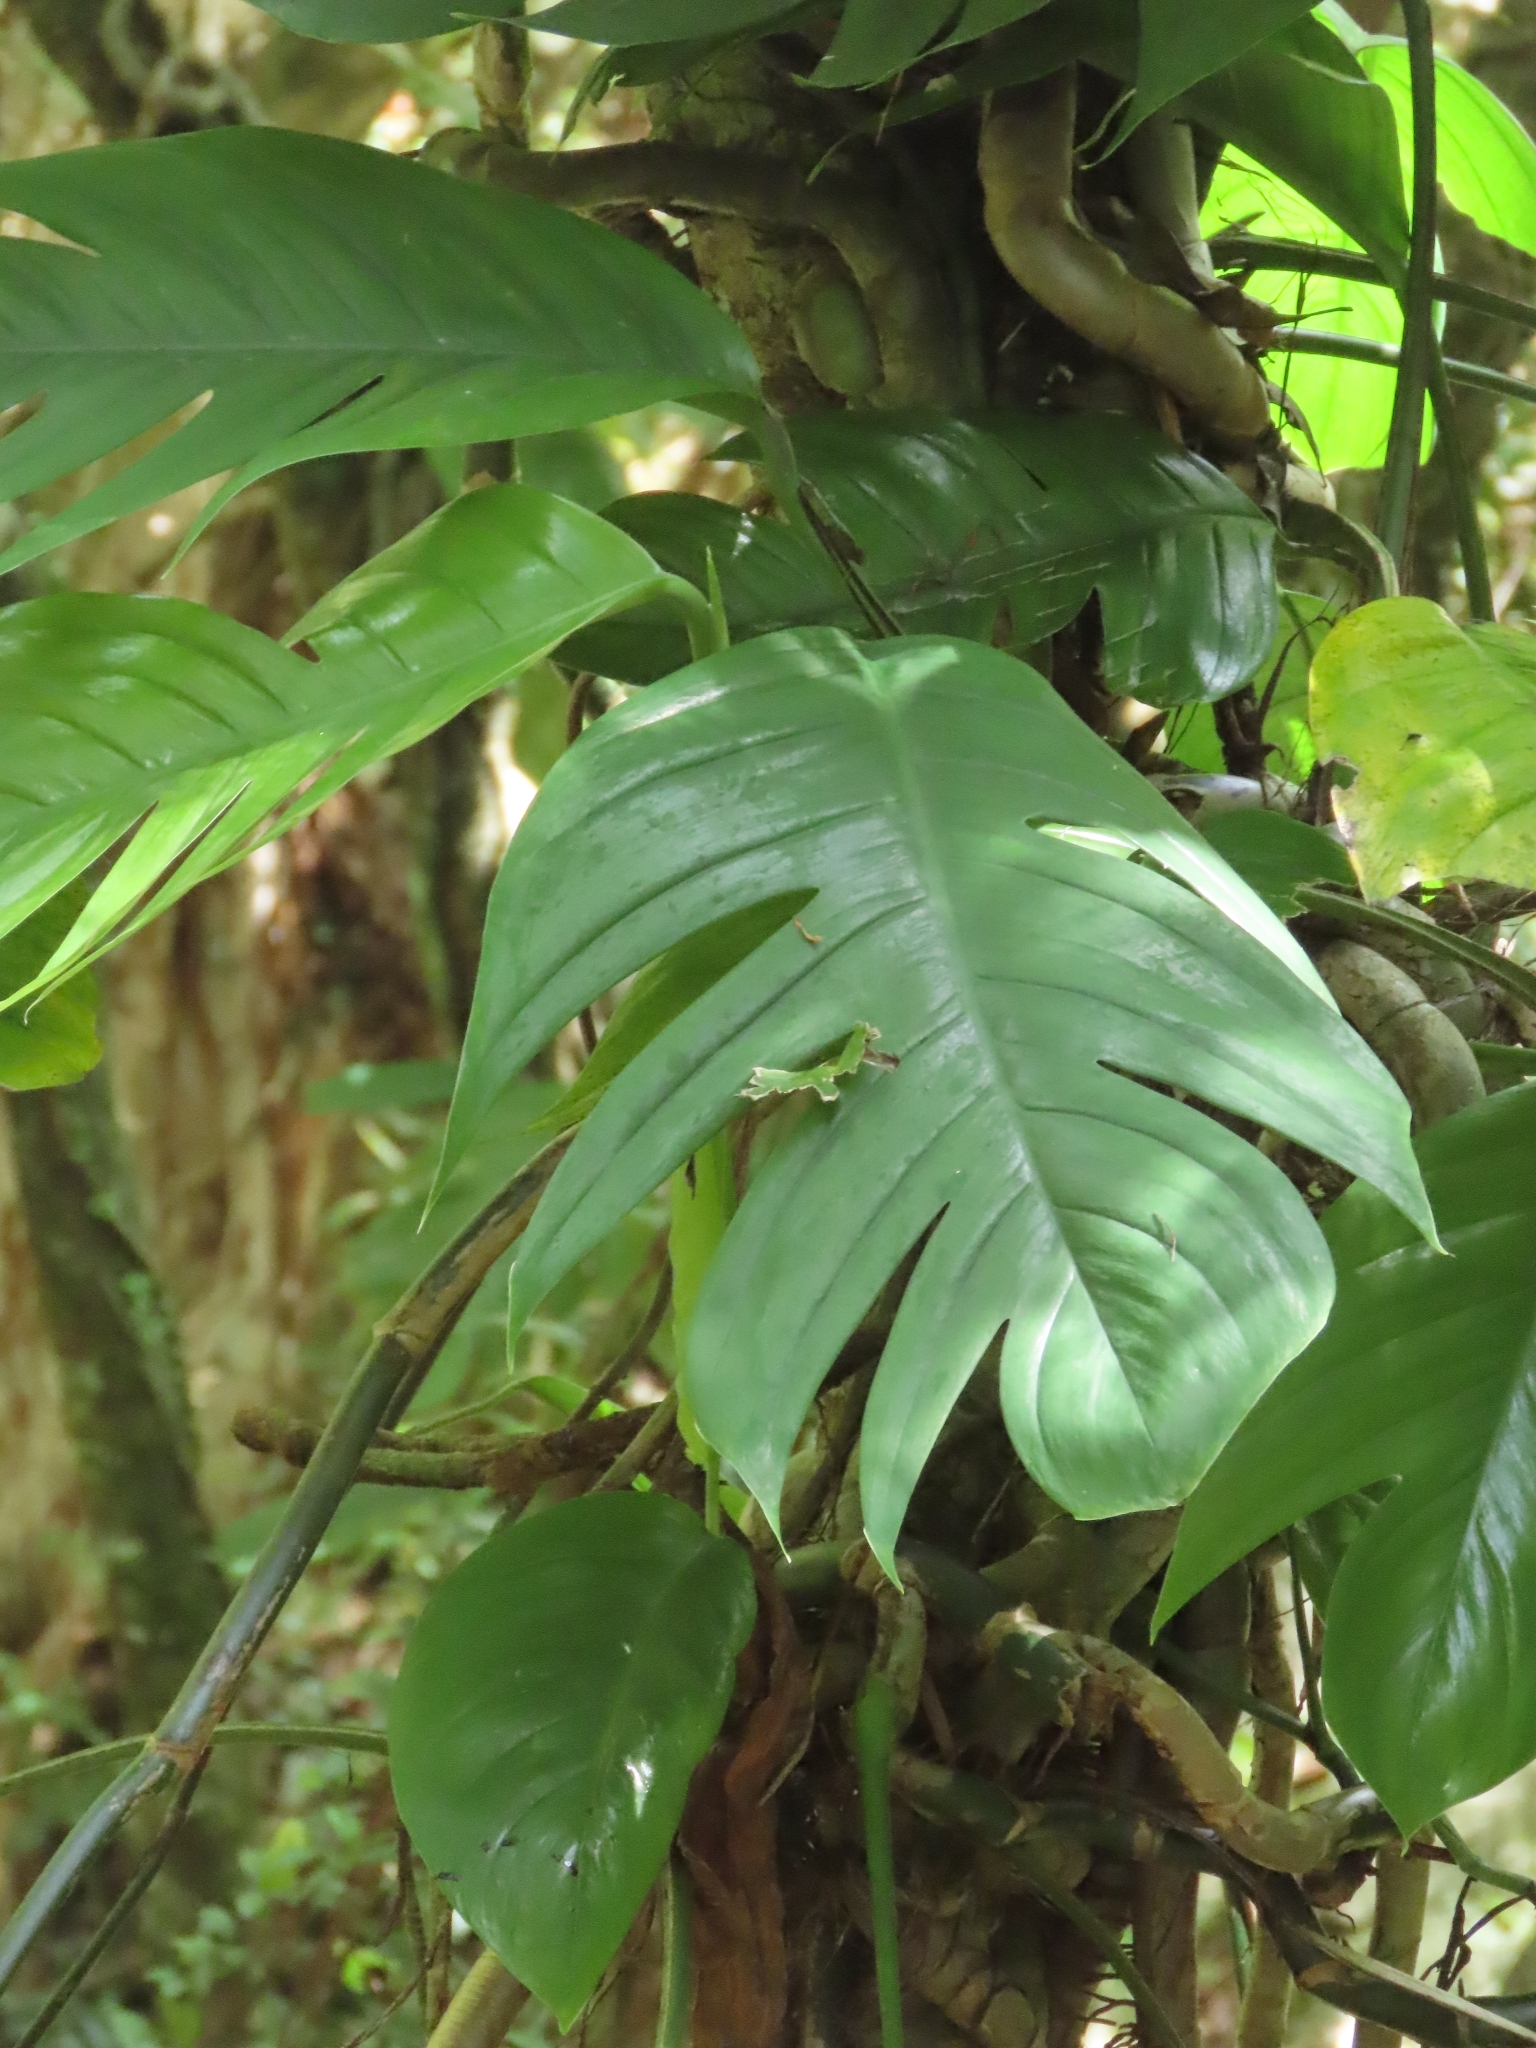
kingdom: Plantae
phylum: Tracheophyta
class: Liliopsida
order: Alismatales
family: Araceae
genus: Epipremnum
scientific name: Epipremnum pinnatum
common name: Centipede tongavine
